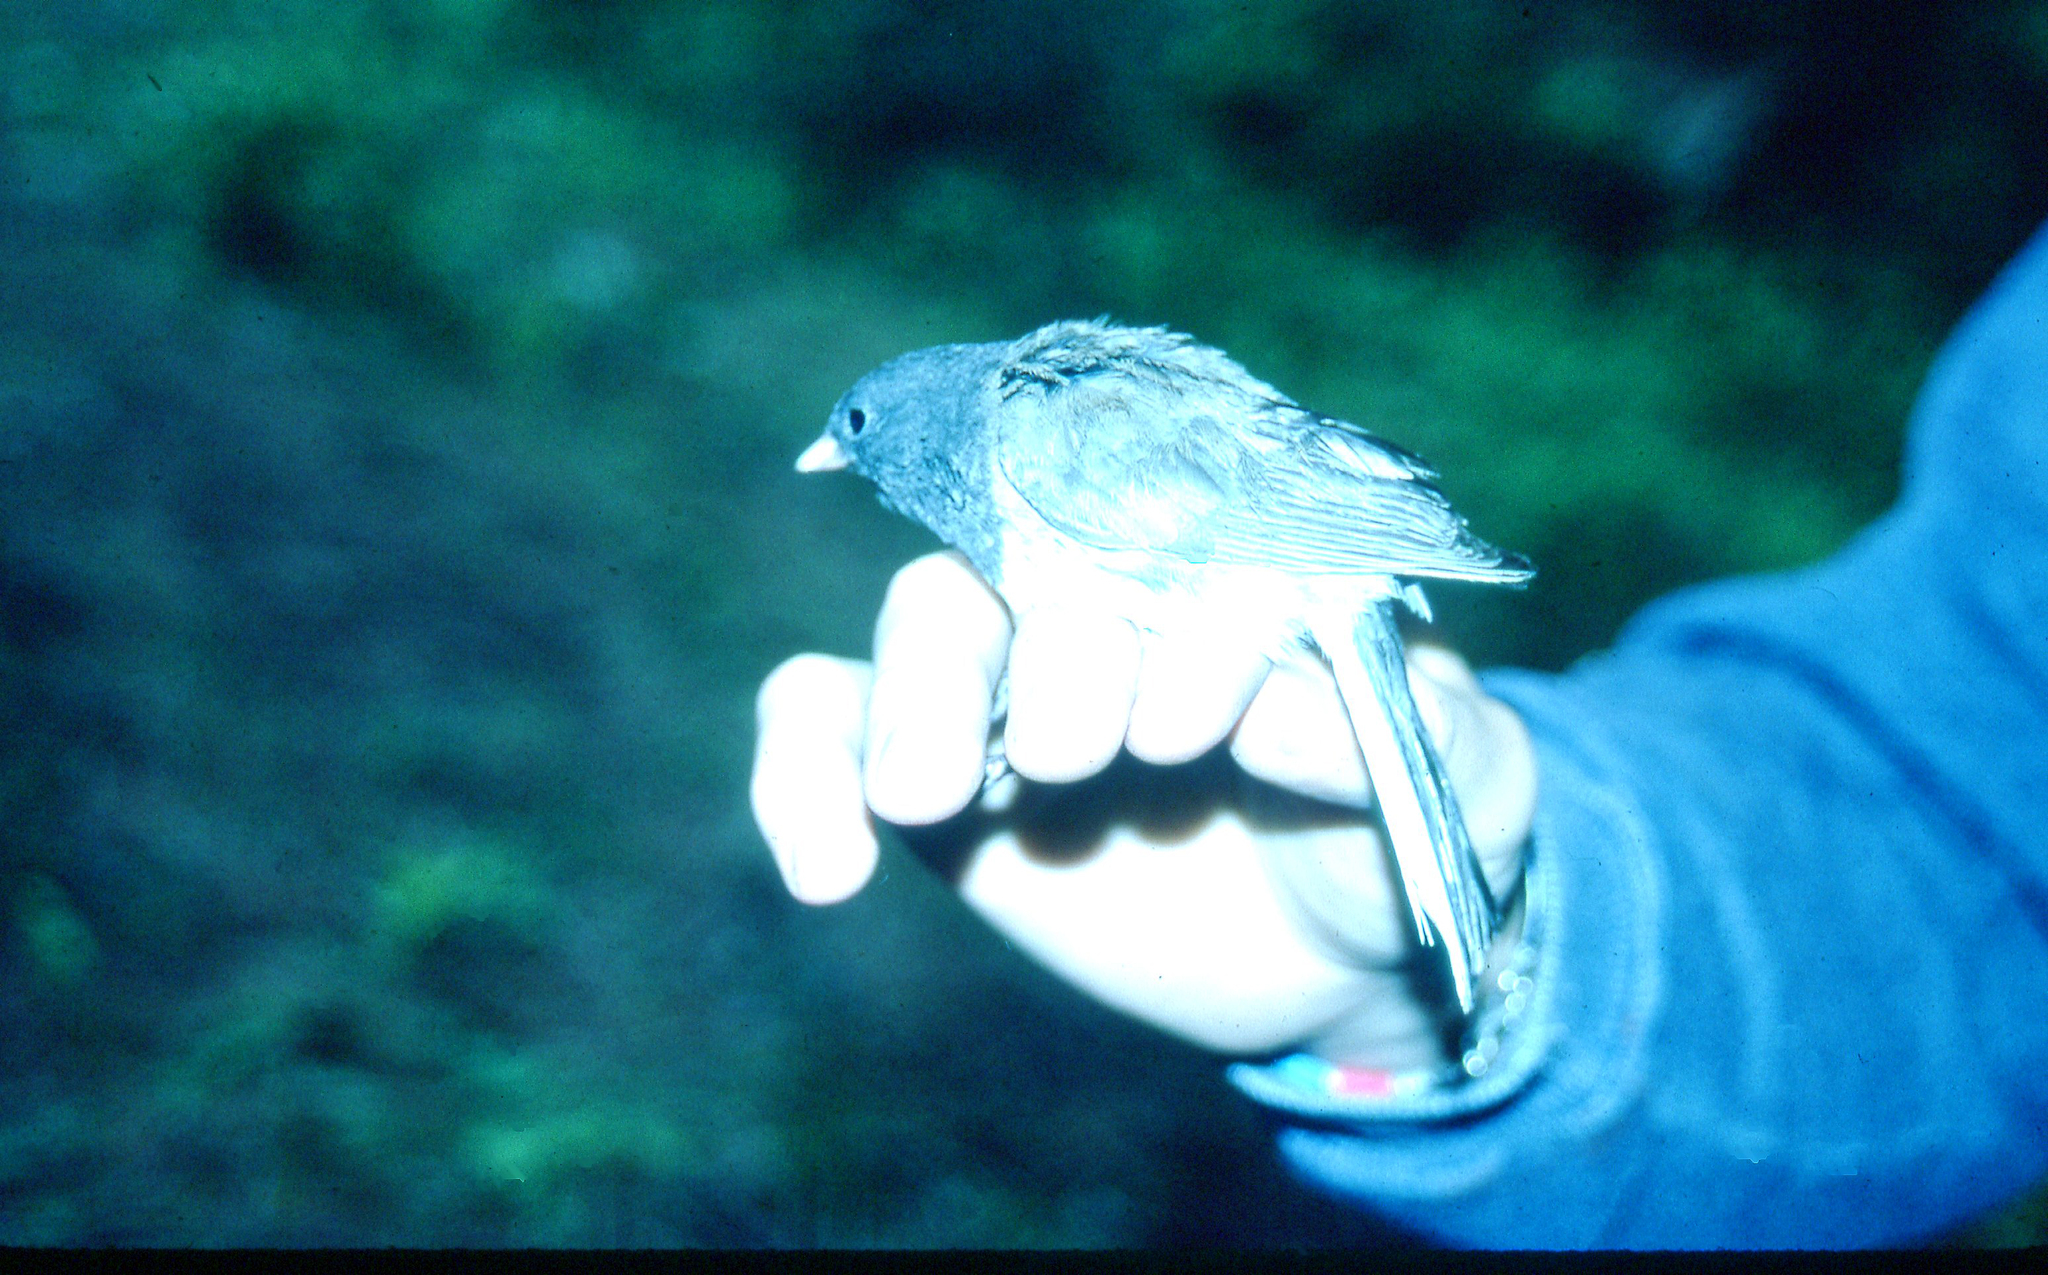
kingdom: Animalia
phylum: Chordata
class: Aves
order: Passeriformes
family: Passerellidae
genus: Junco
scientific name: Junco hyemalis
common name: Dark-eyed junco
